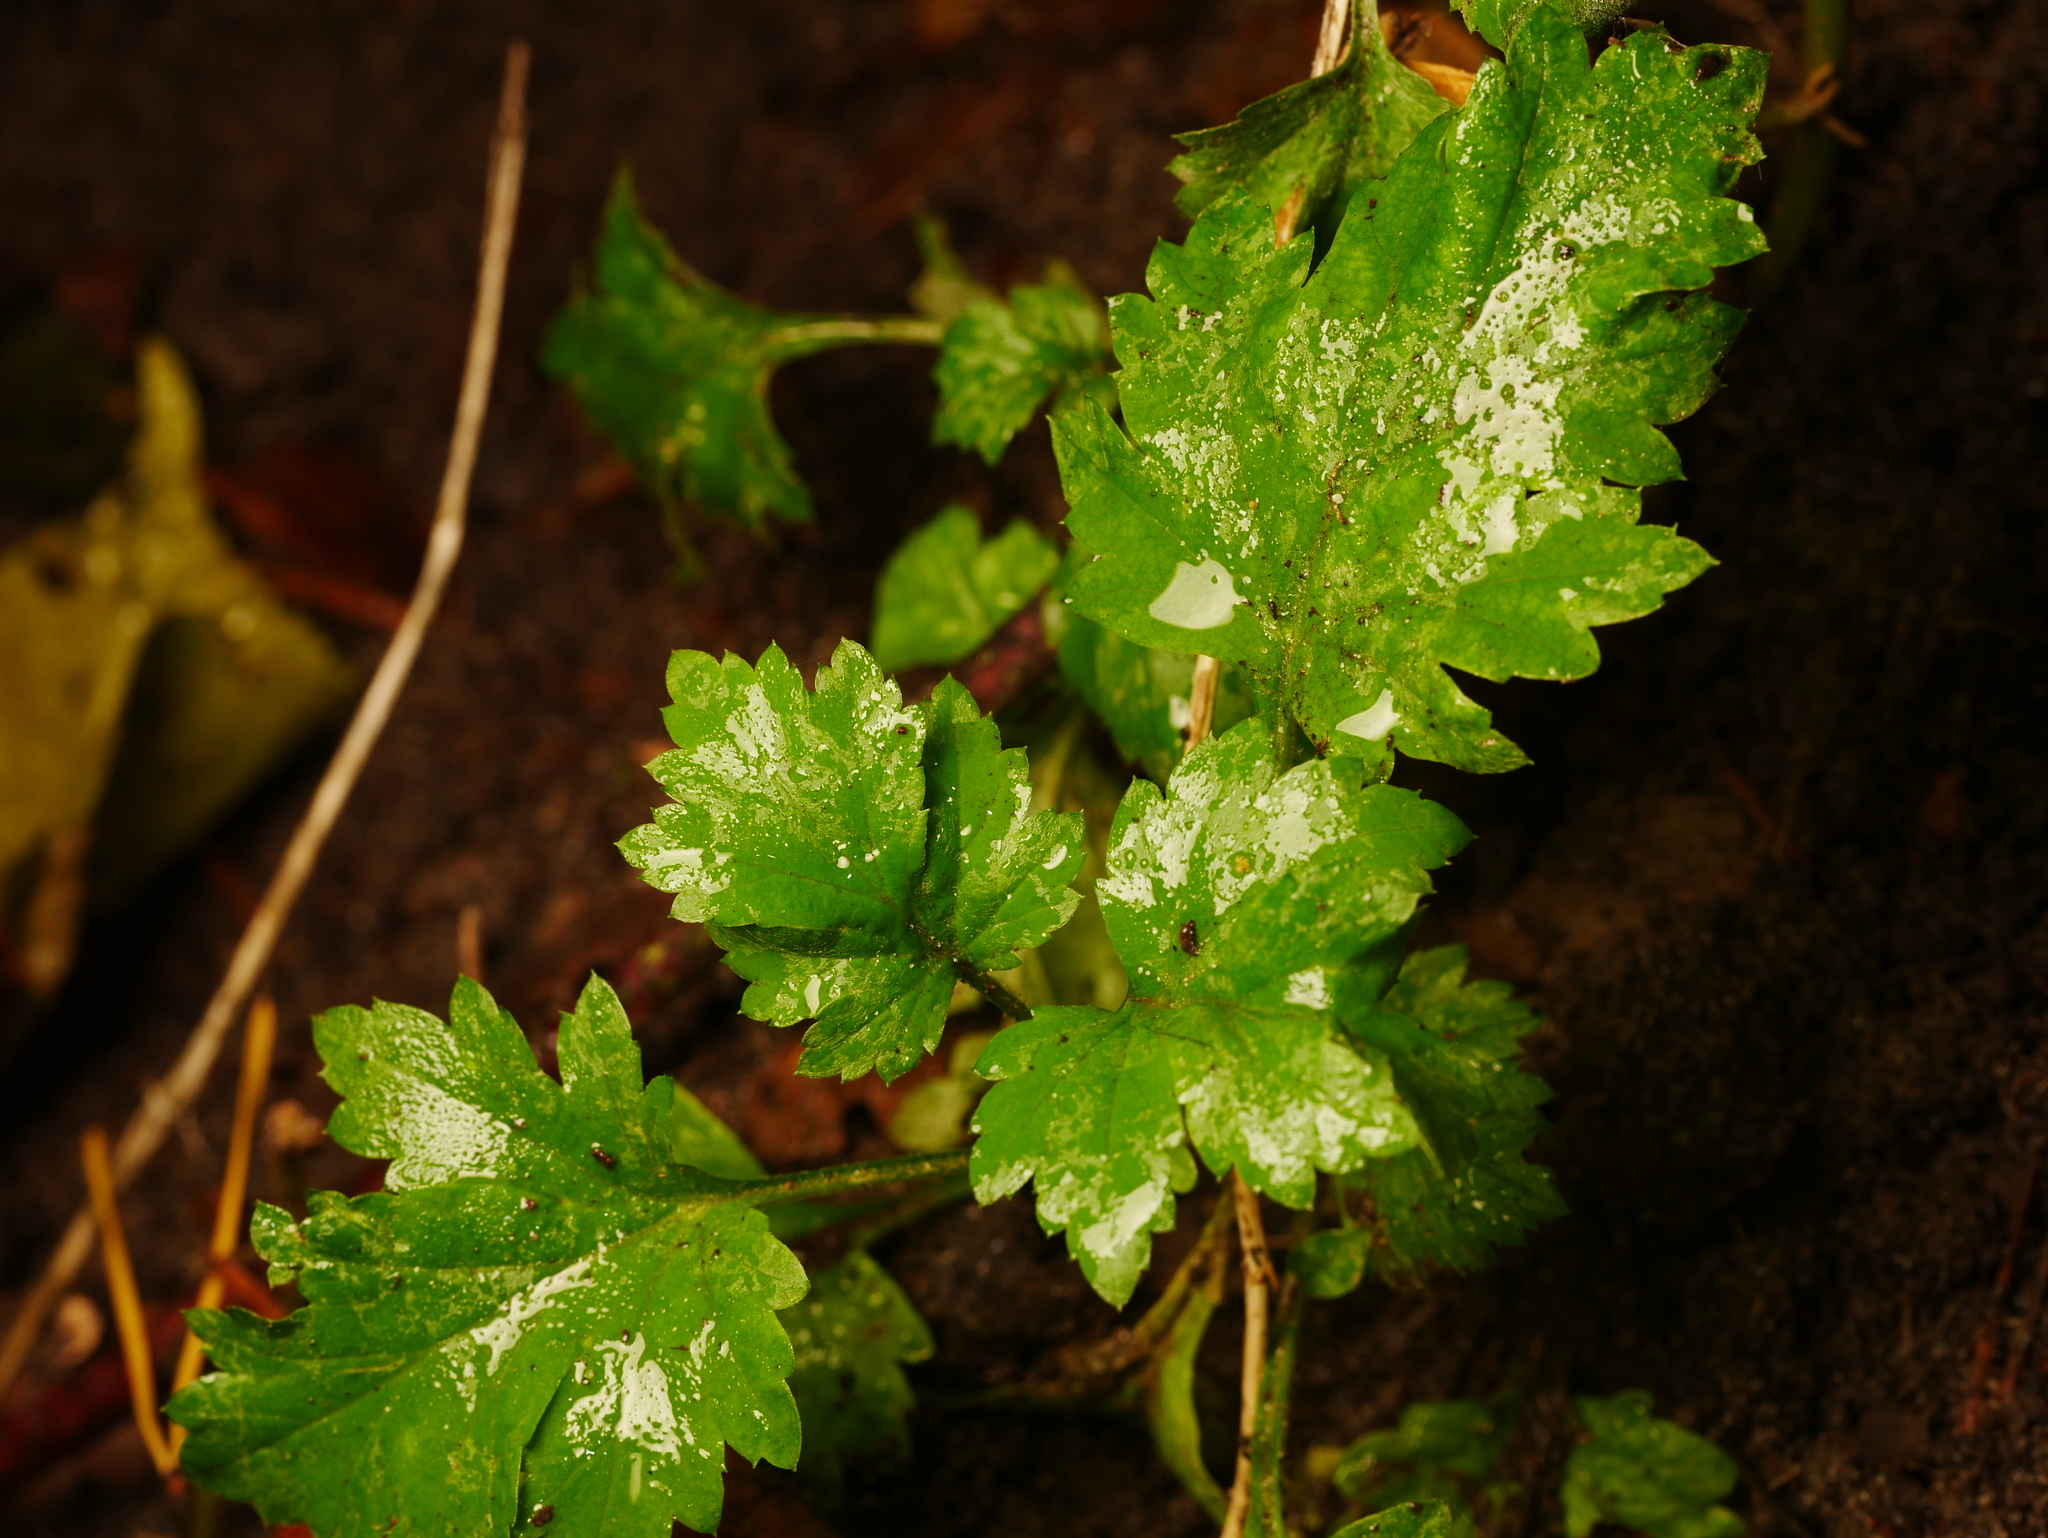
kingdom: Plantae
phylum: Tracheophyta
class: Magnoliopsida
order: Asterales
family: Asteraceae
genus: Artemisia
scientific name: Artemisia vulgaris
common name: Mugwort
